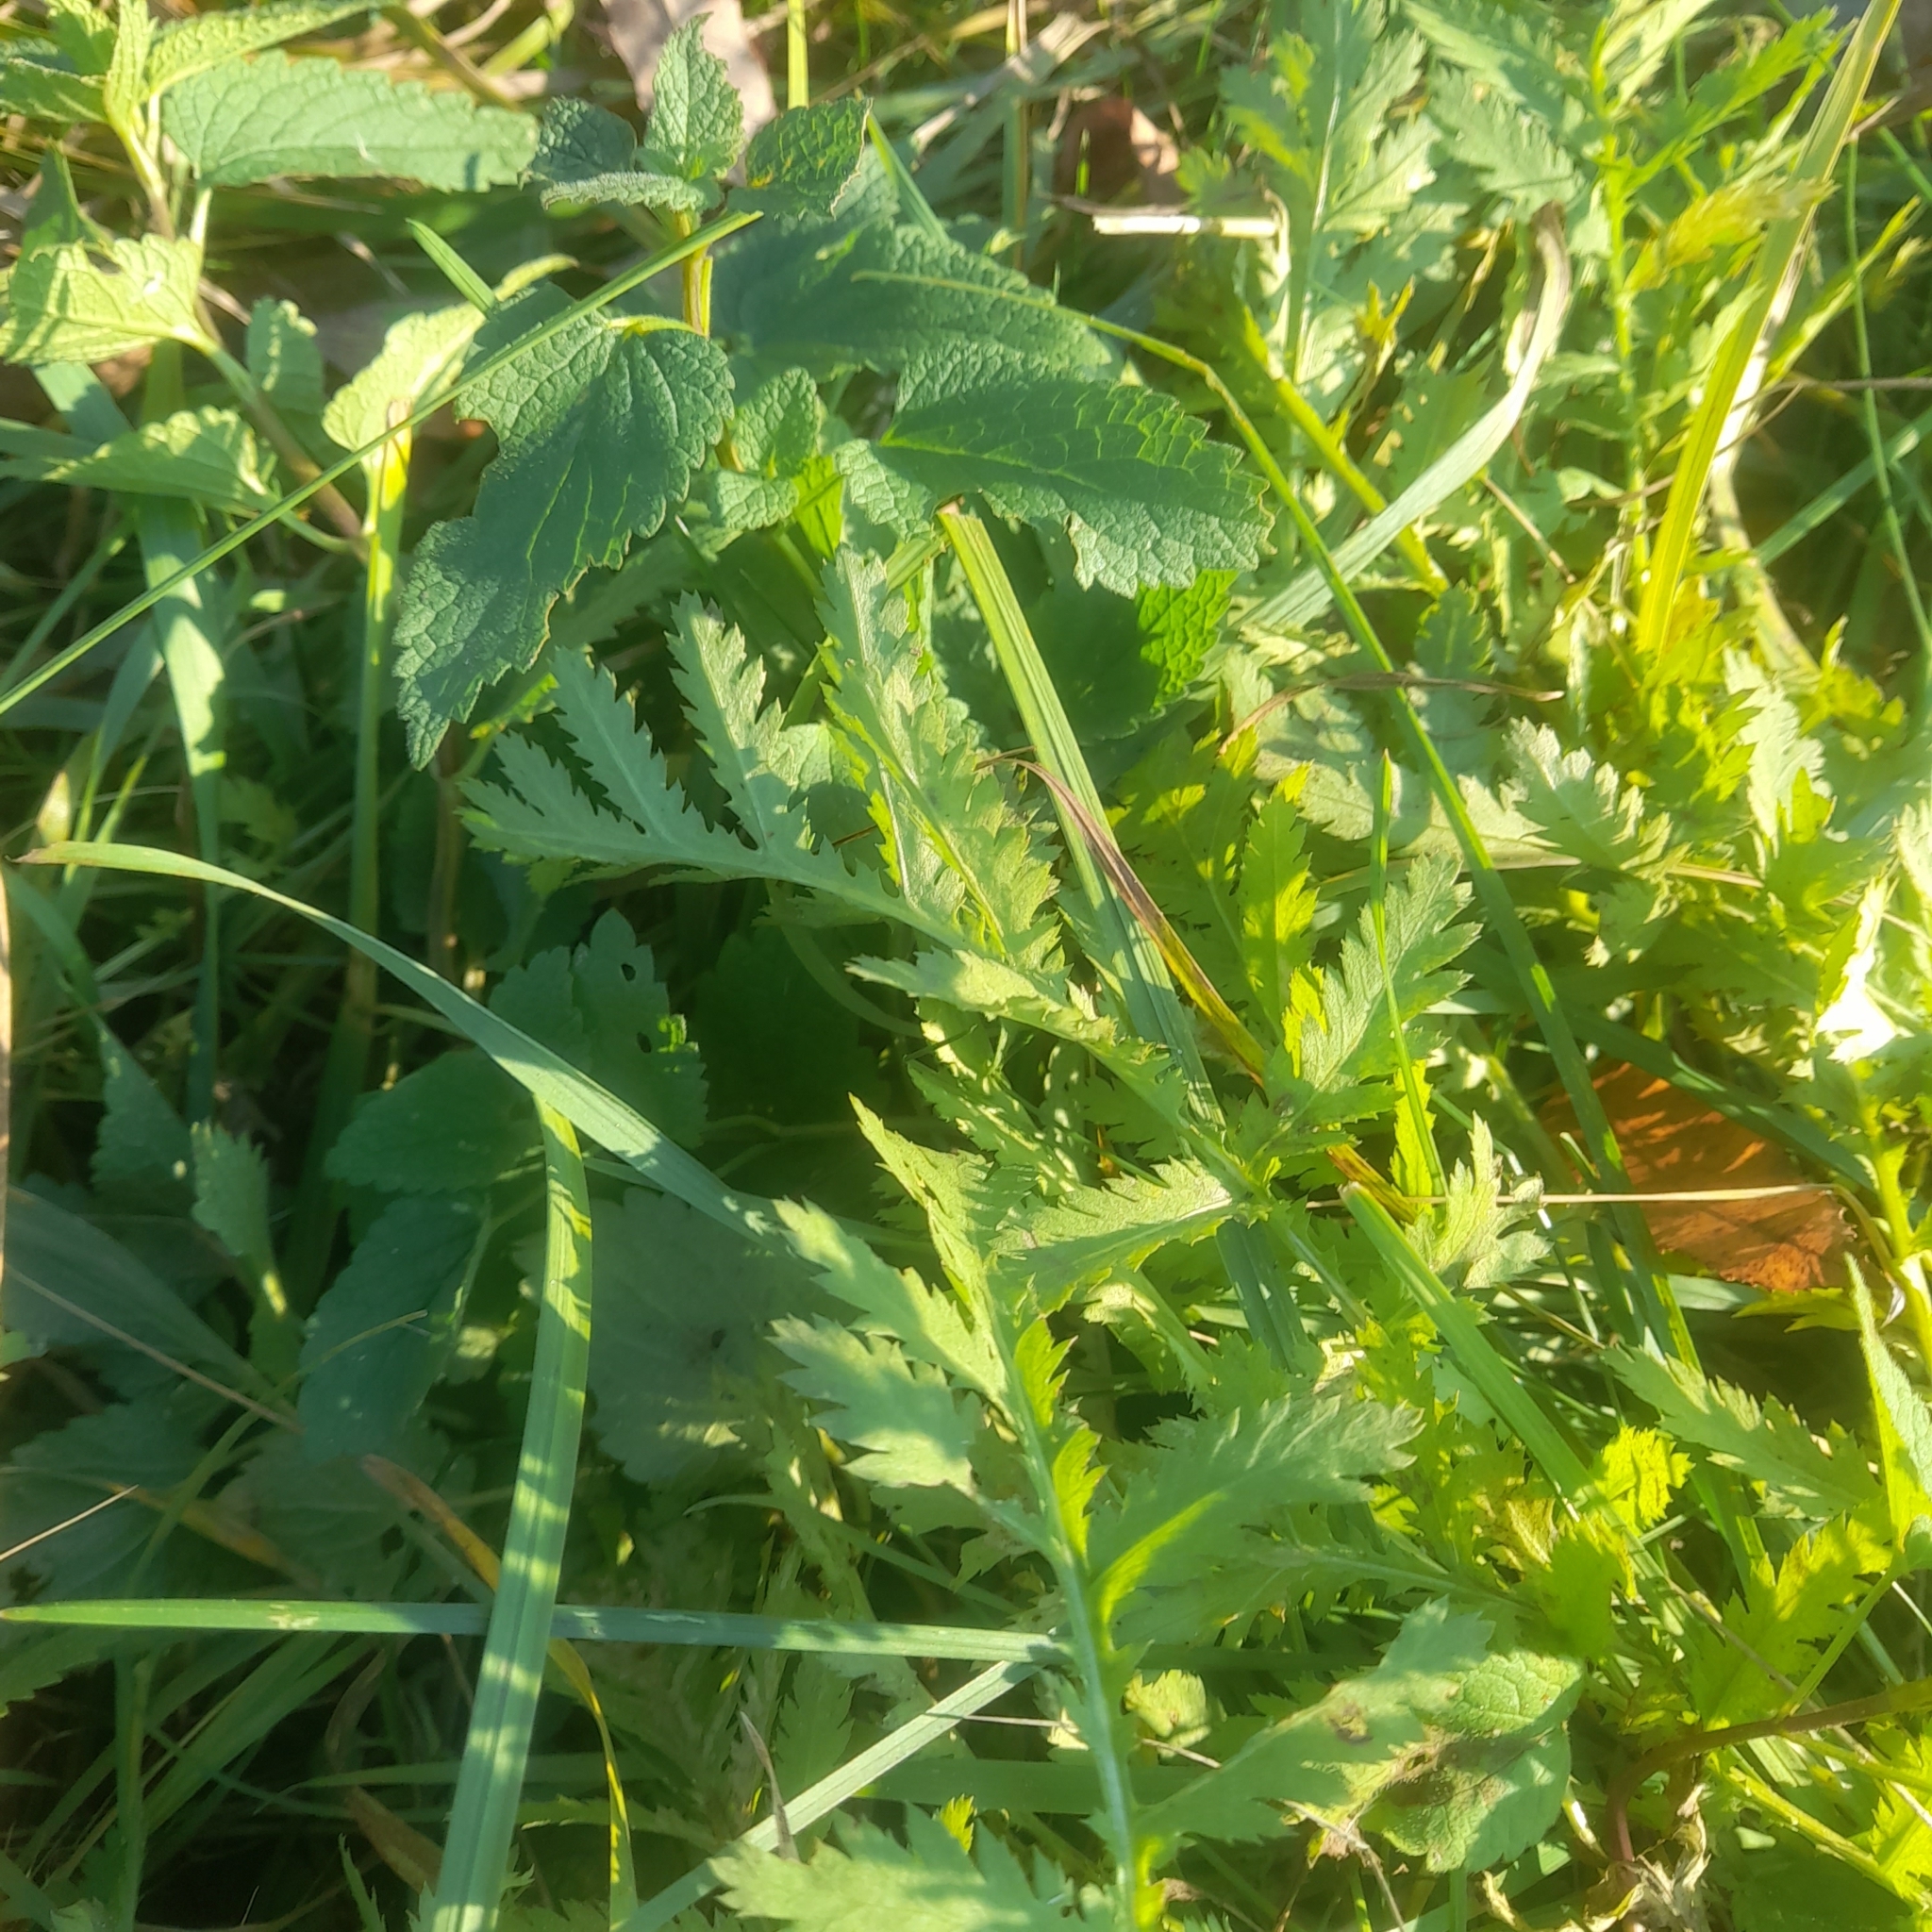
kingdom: Plantae
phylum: Tracheophyta
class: Magnoliopsida
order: Asterales
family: Asteraceae
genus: Tanacetum
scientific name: Tanacetum vulgare
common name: Common tansy
